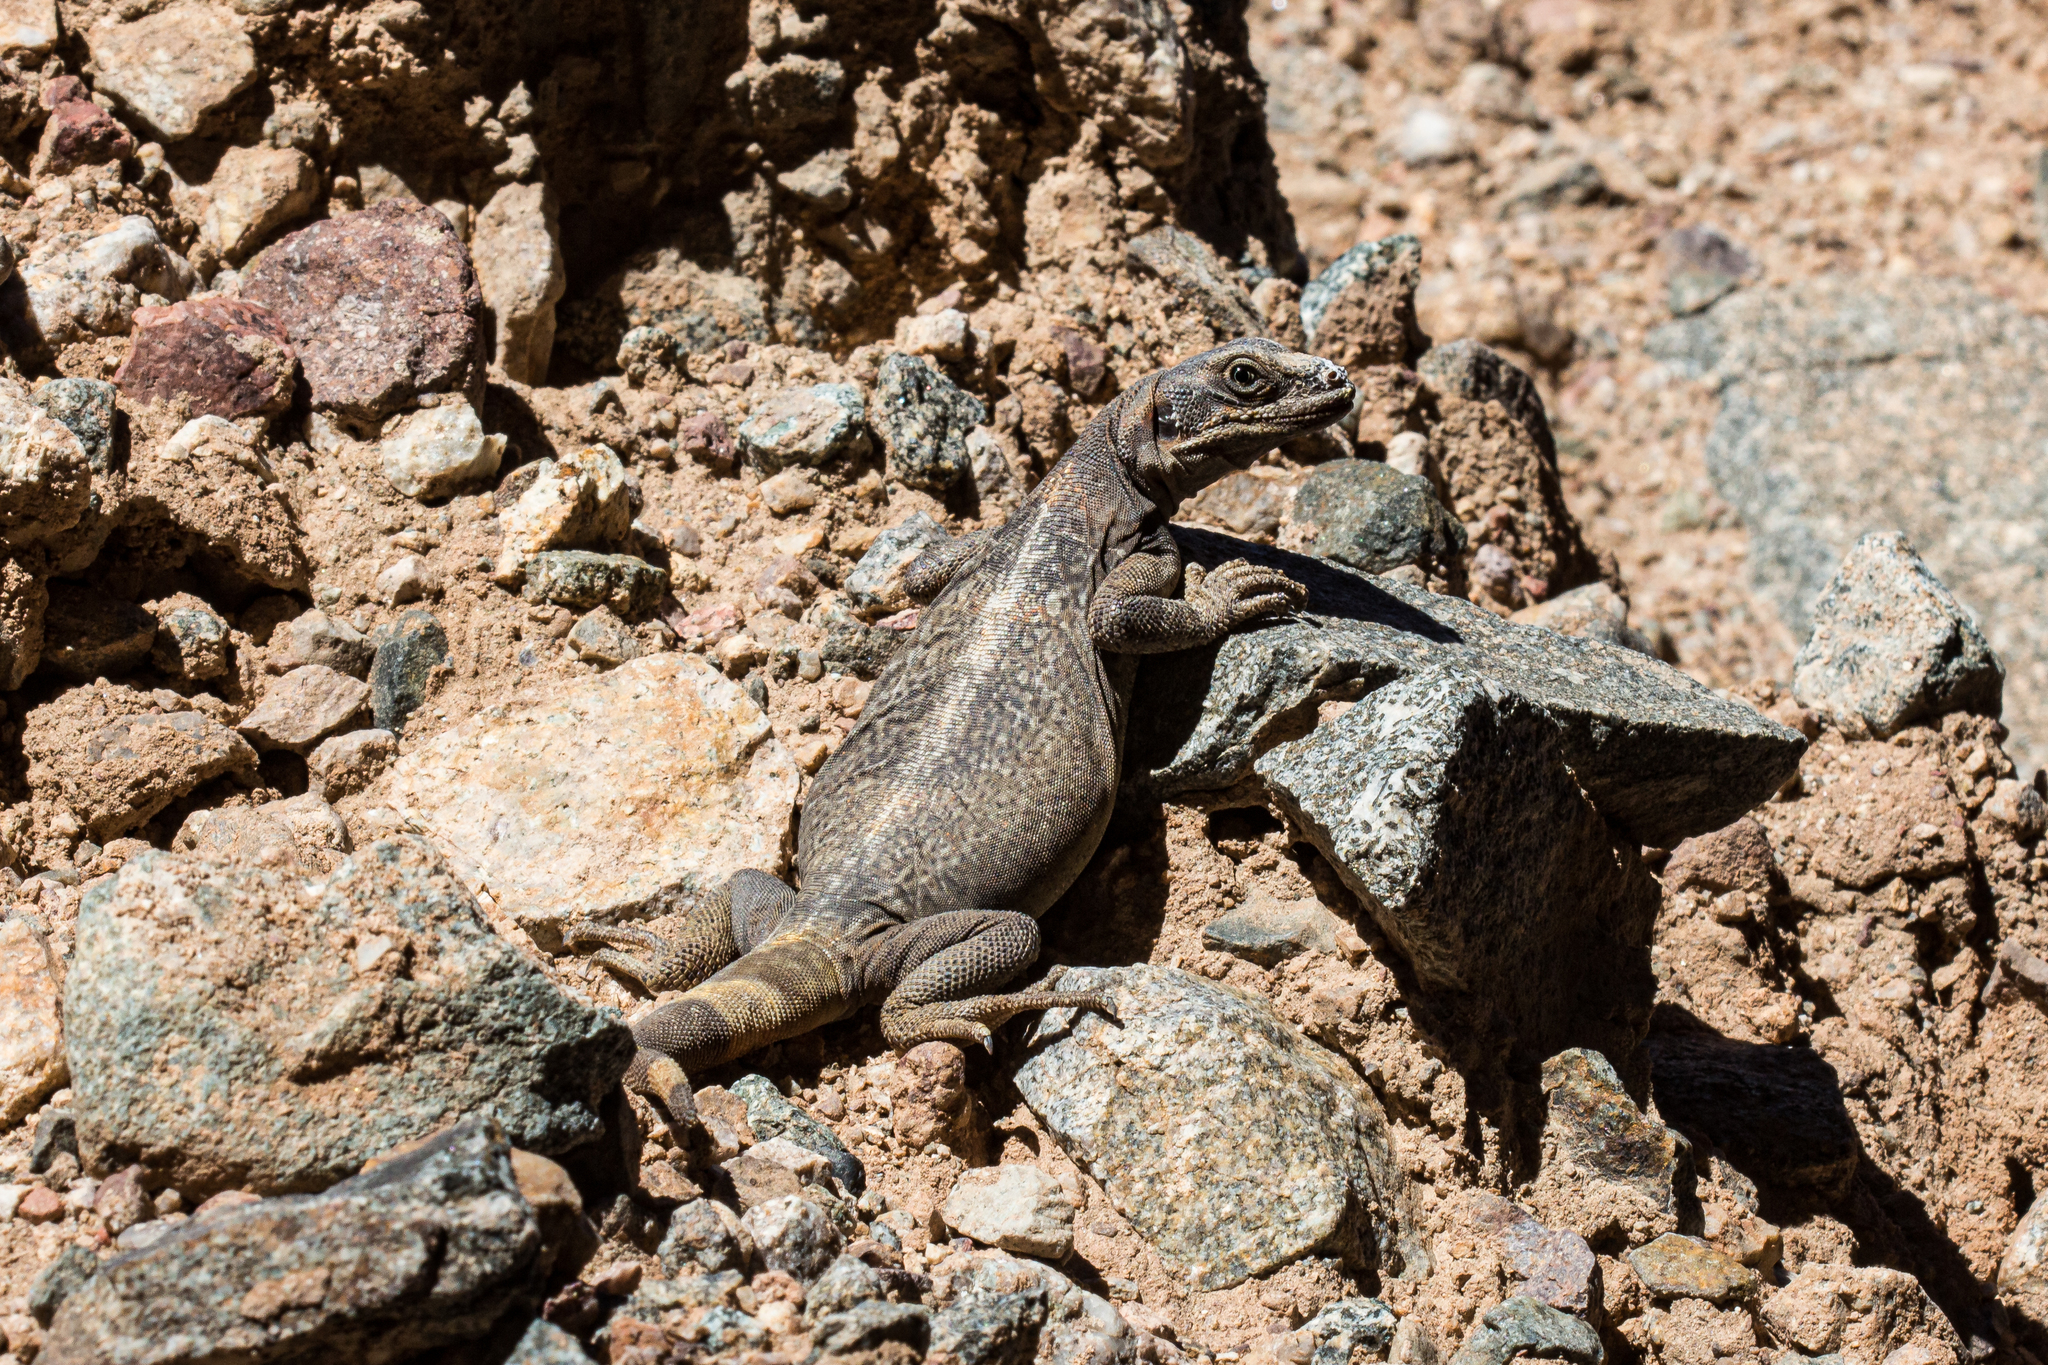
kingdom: Animalia
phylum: Chordata
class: Squamata
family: Iguanidae
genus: Sauromalus
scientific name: Sauromalus ater
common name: Northern chuckwalla
